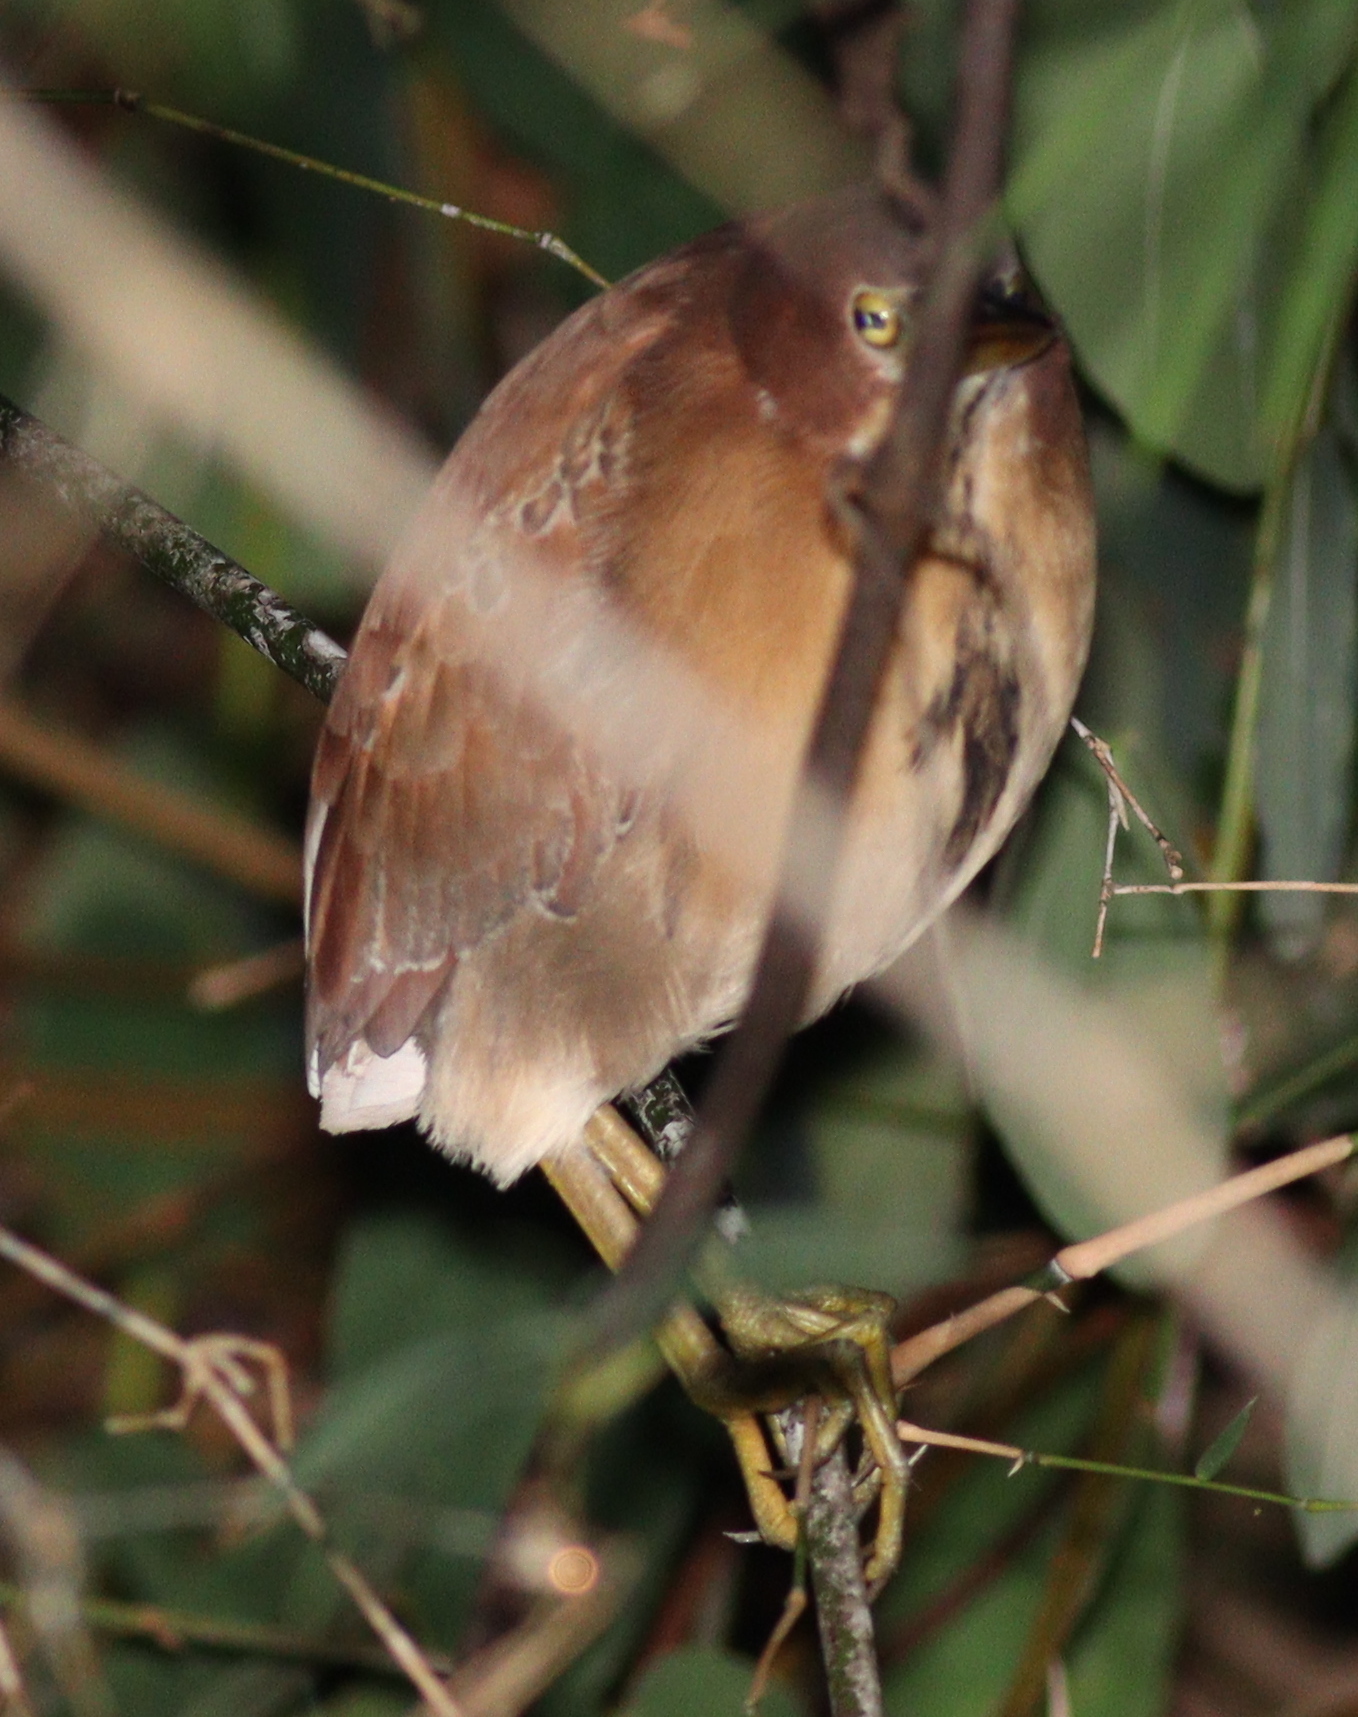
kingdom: Animalia
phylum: Chordata
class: Aves
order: Pelecaniformes
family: Ardeidae
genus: Ixobrychus
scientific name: Ixobrychus cinnamomeus
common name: Cinnamon bittern
